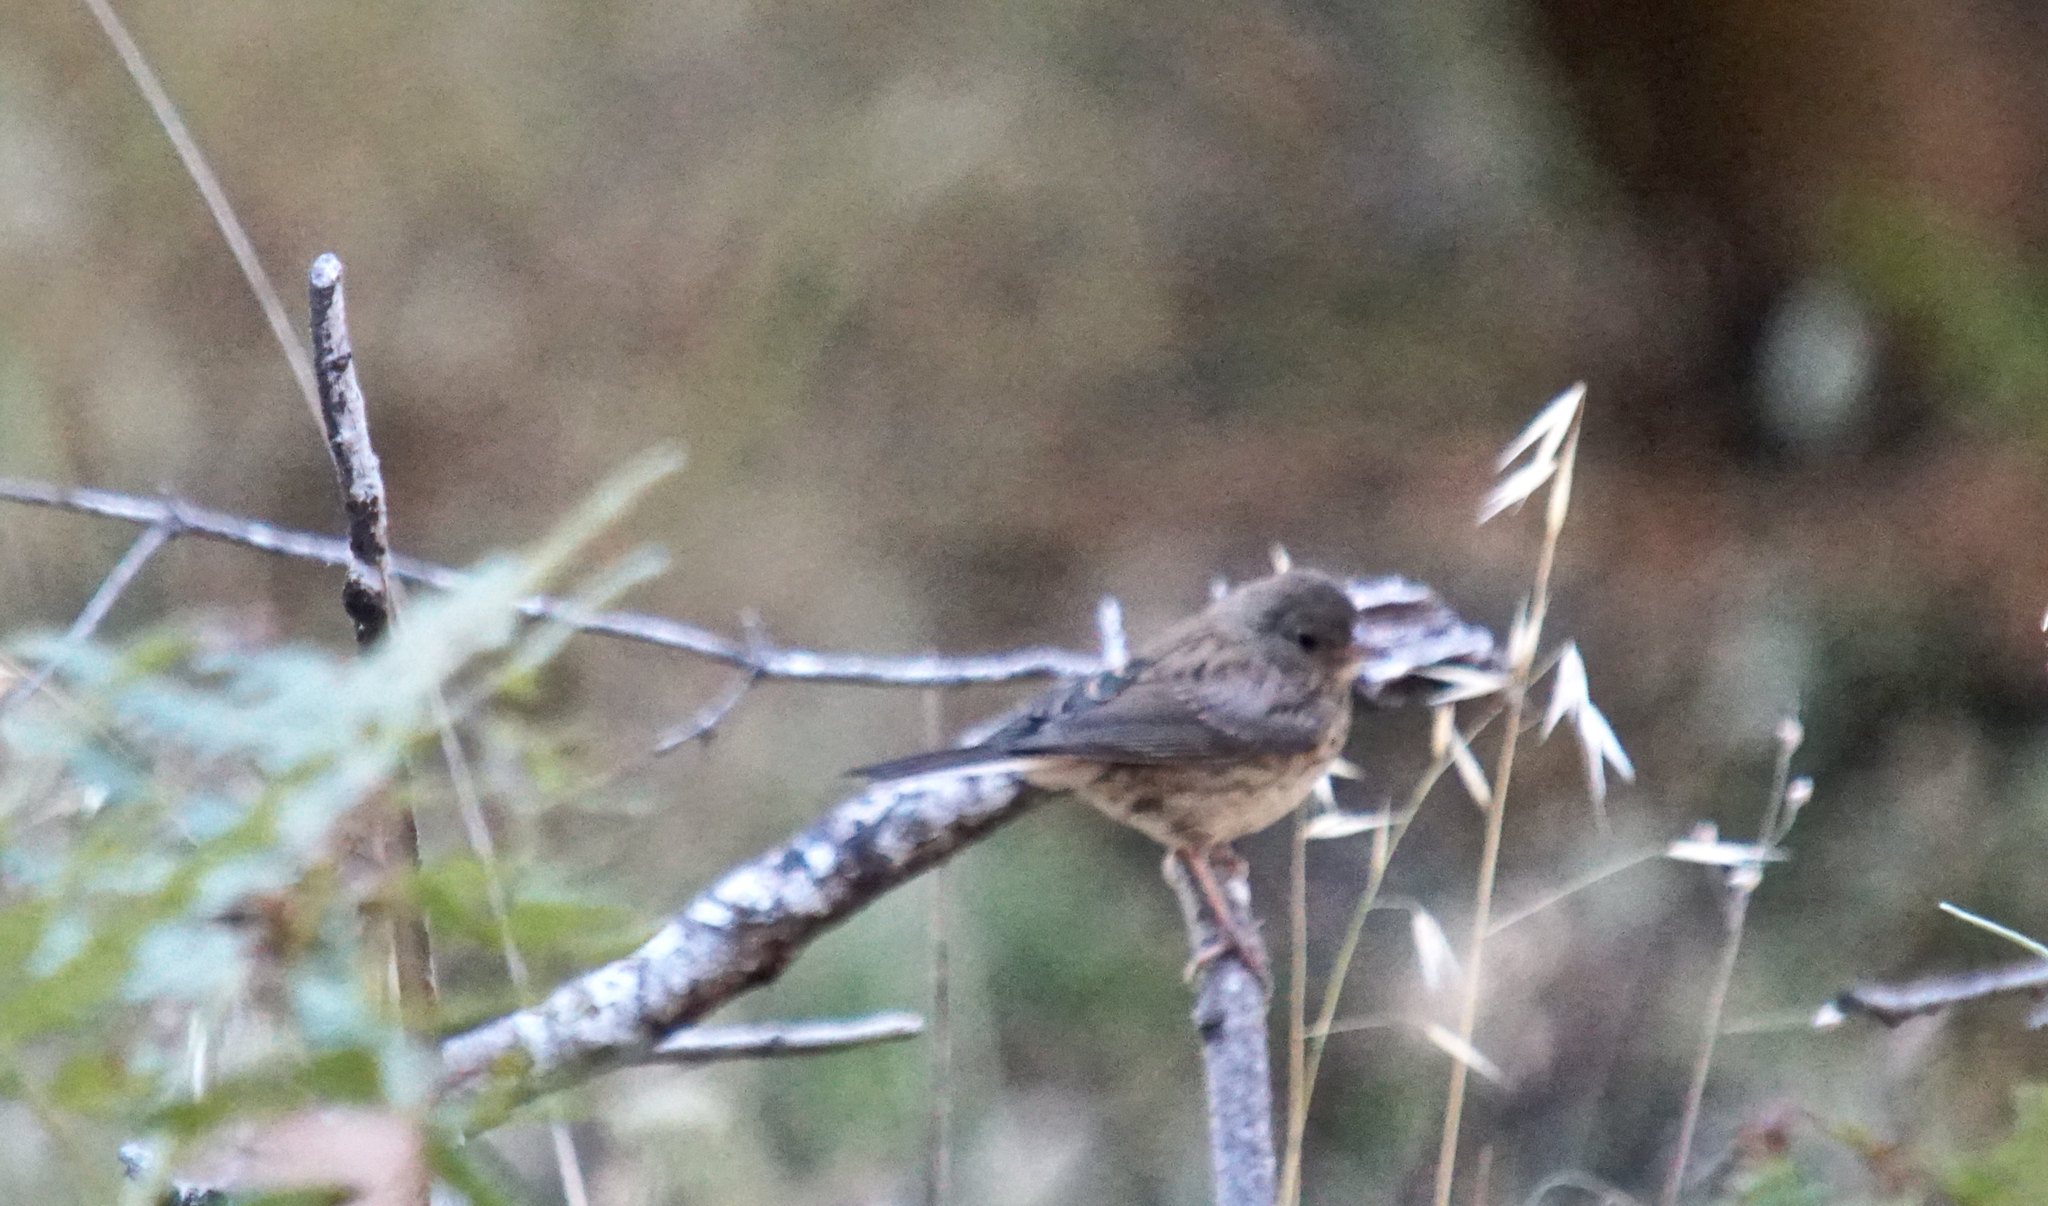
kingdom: Animalia
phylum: Chordata
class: Aves
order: Passeriformes
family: Passerellidae
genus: Junco
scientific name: Junco hyemalis
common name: Dark-eyed junco
